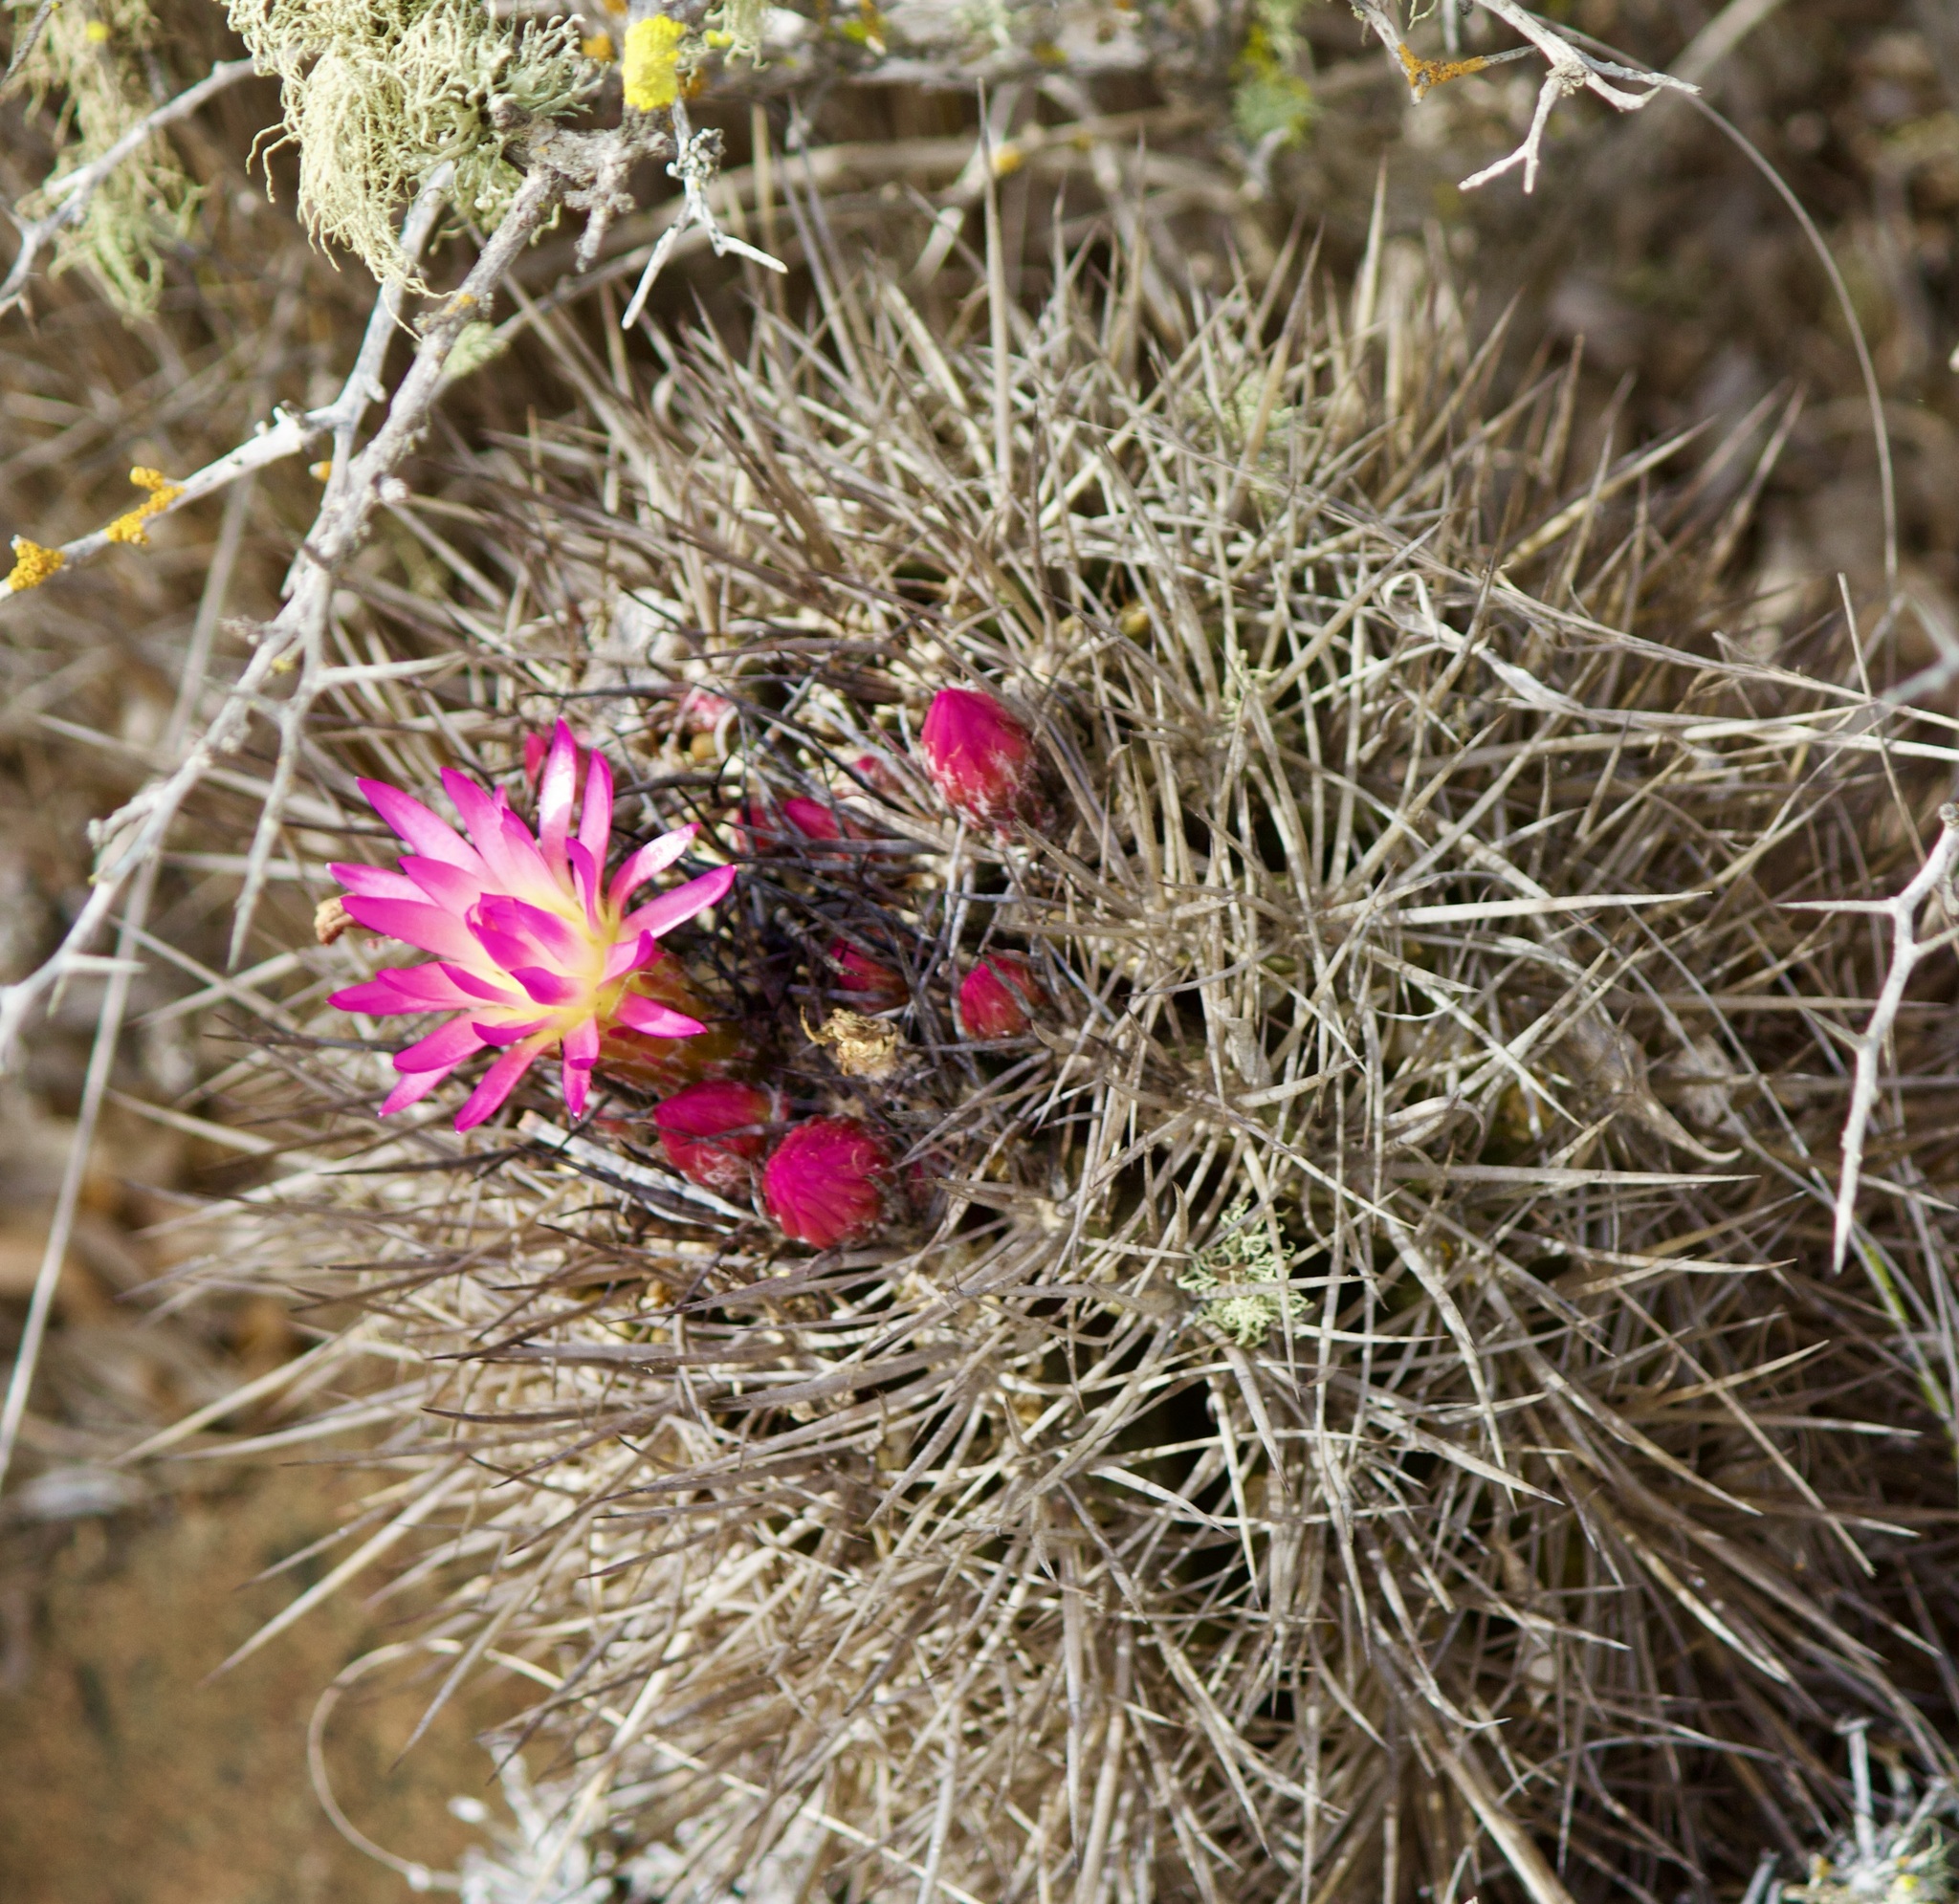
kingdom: Plantae
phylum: Tracheophyta
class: Magnoliopsida
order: Caryophyllales
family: Cactaceae
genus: Eriosyce
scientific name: Eriosyce nigrihorrida
